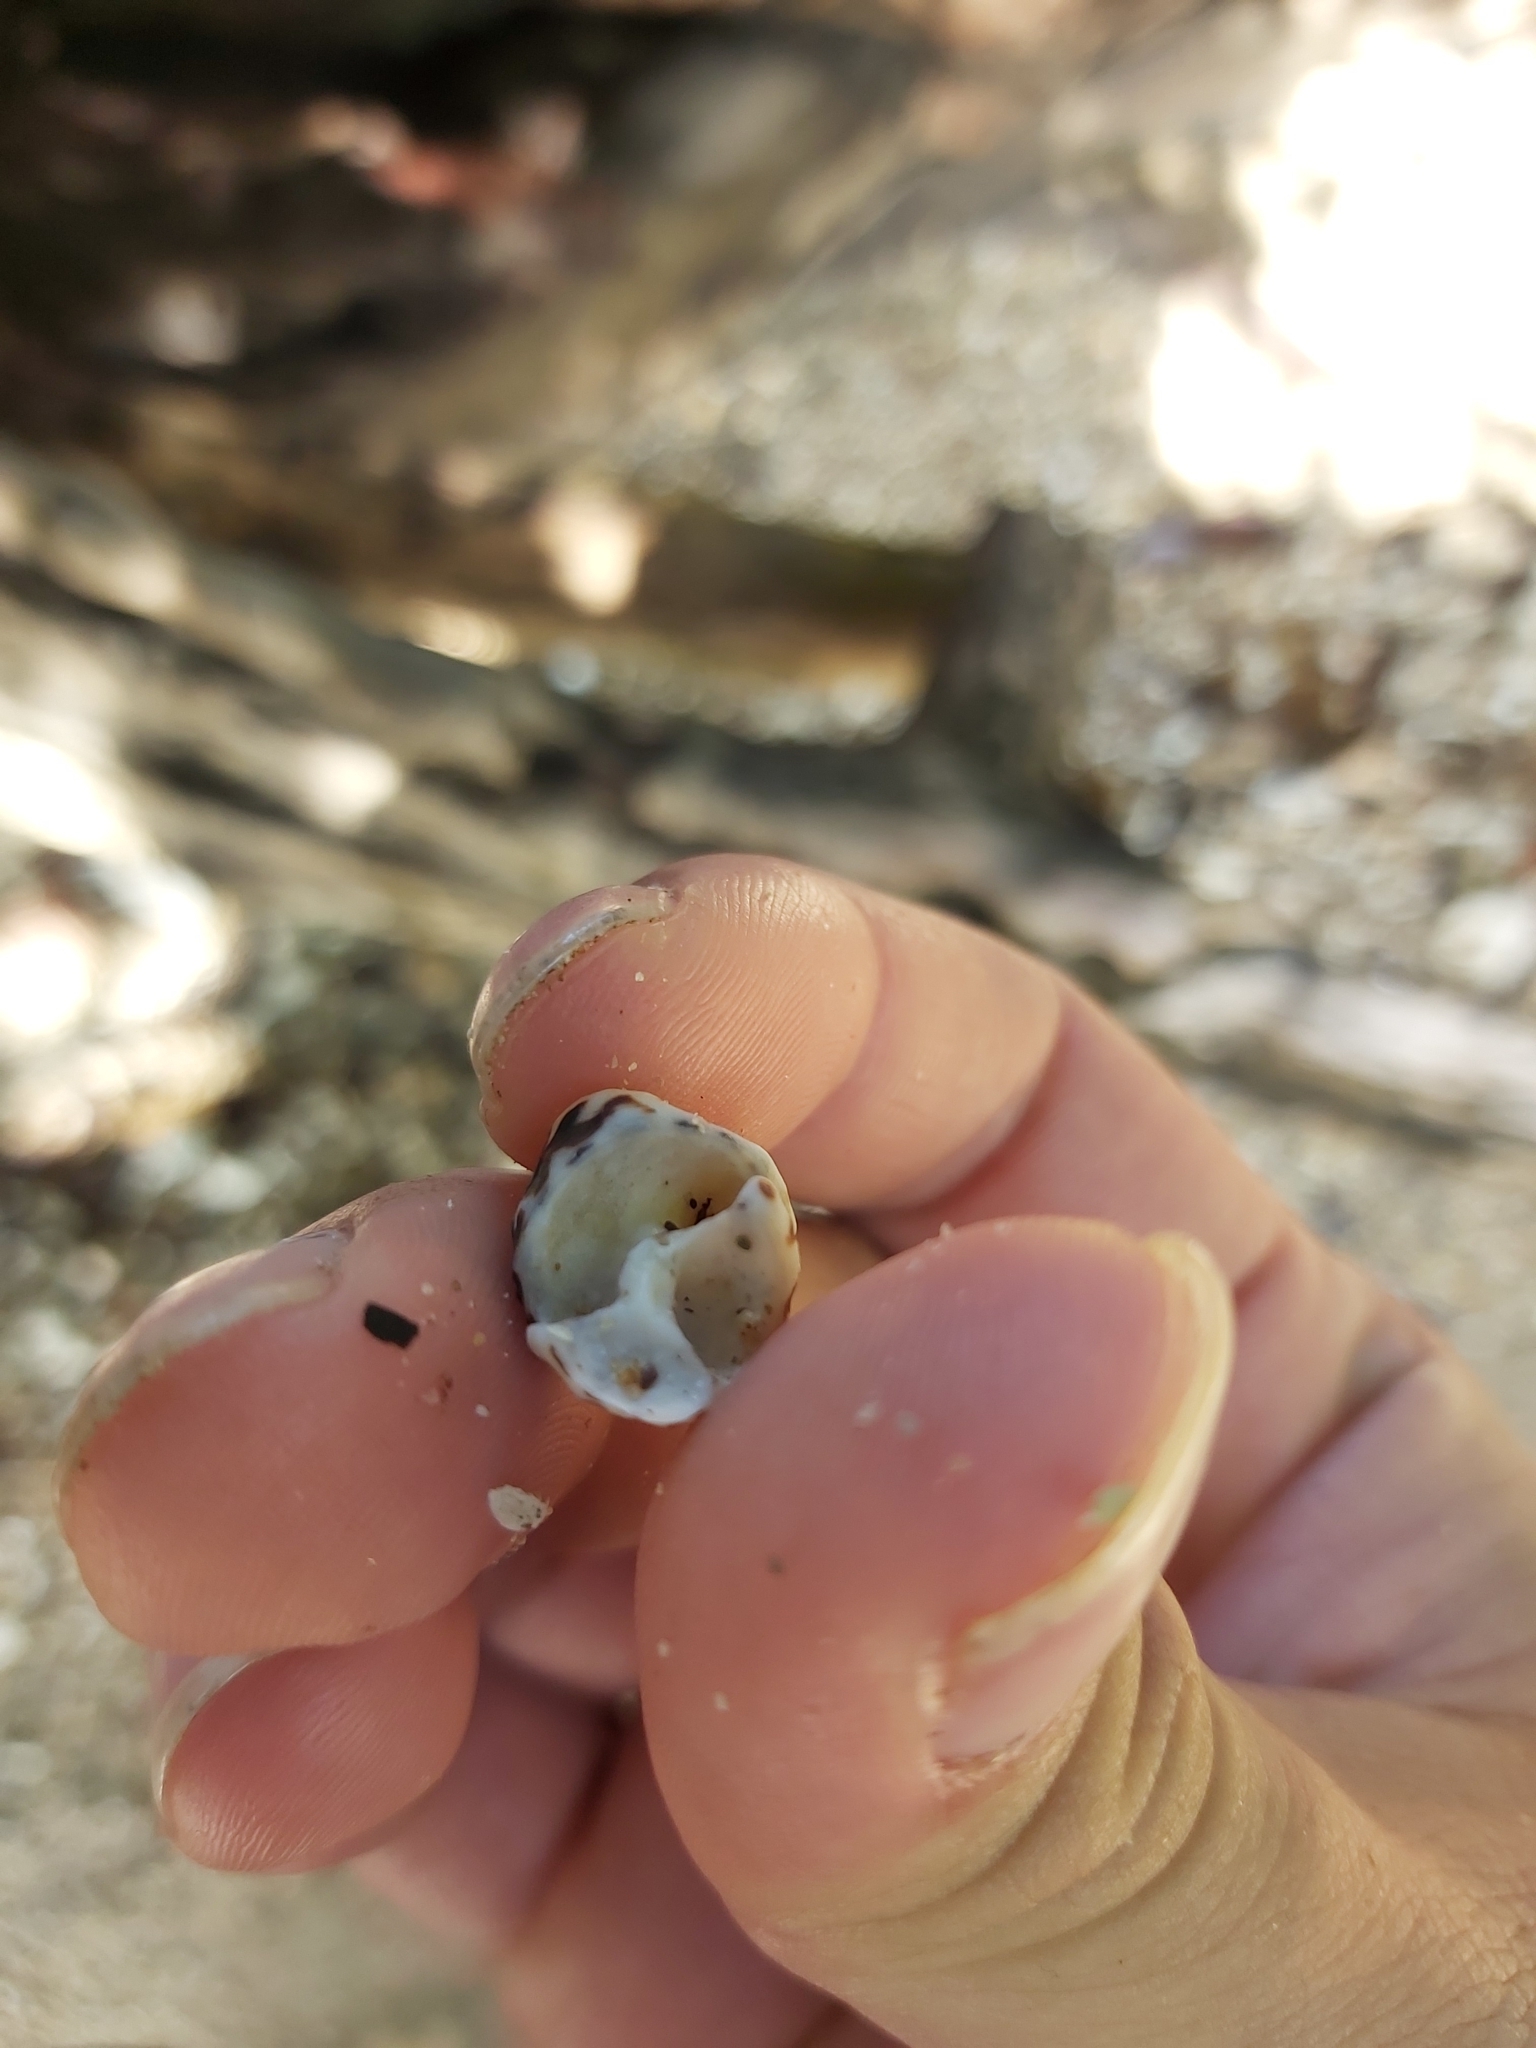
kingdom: Animalia
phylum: Mollusca
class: Gastropoda
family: Cerithiidae
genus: Clypeomorus
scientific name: Clypeomorus petrosa
